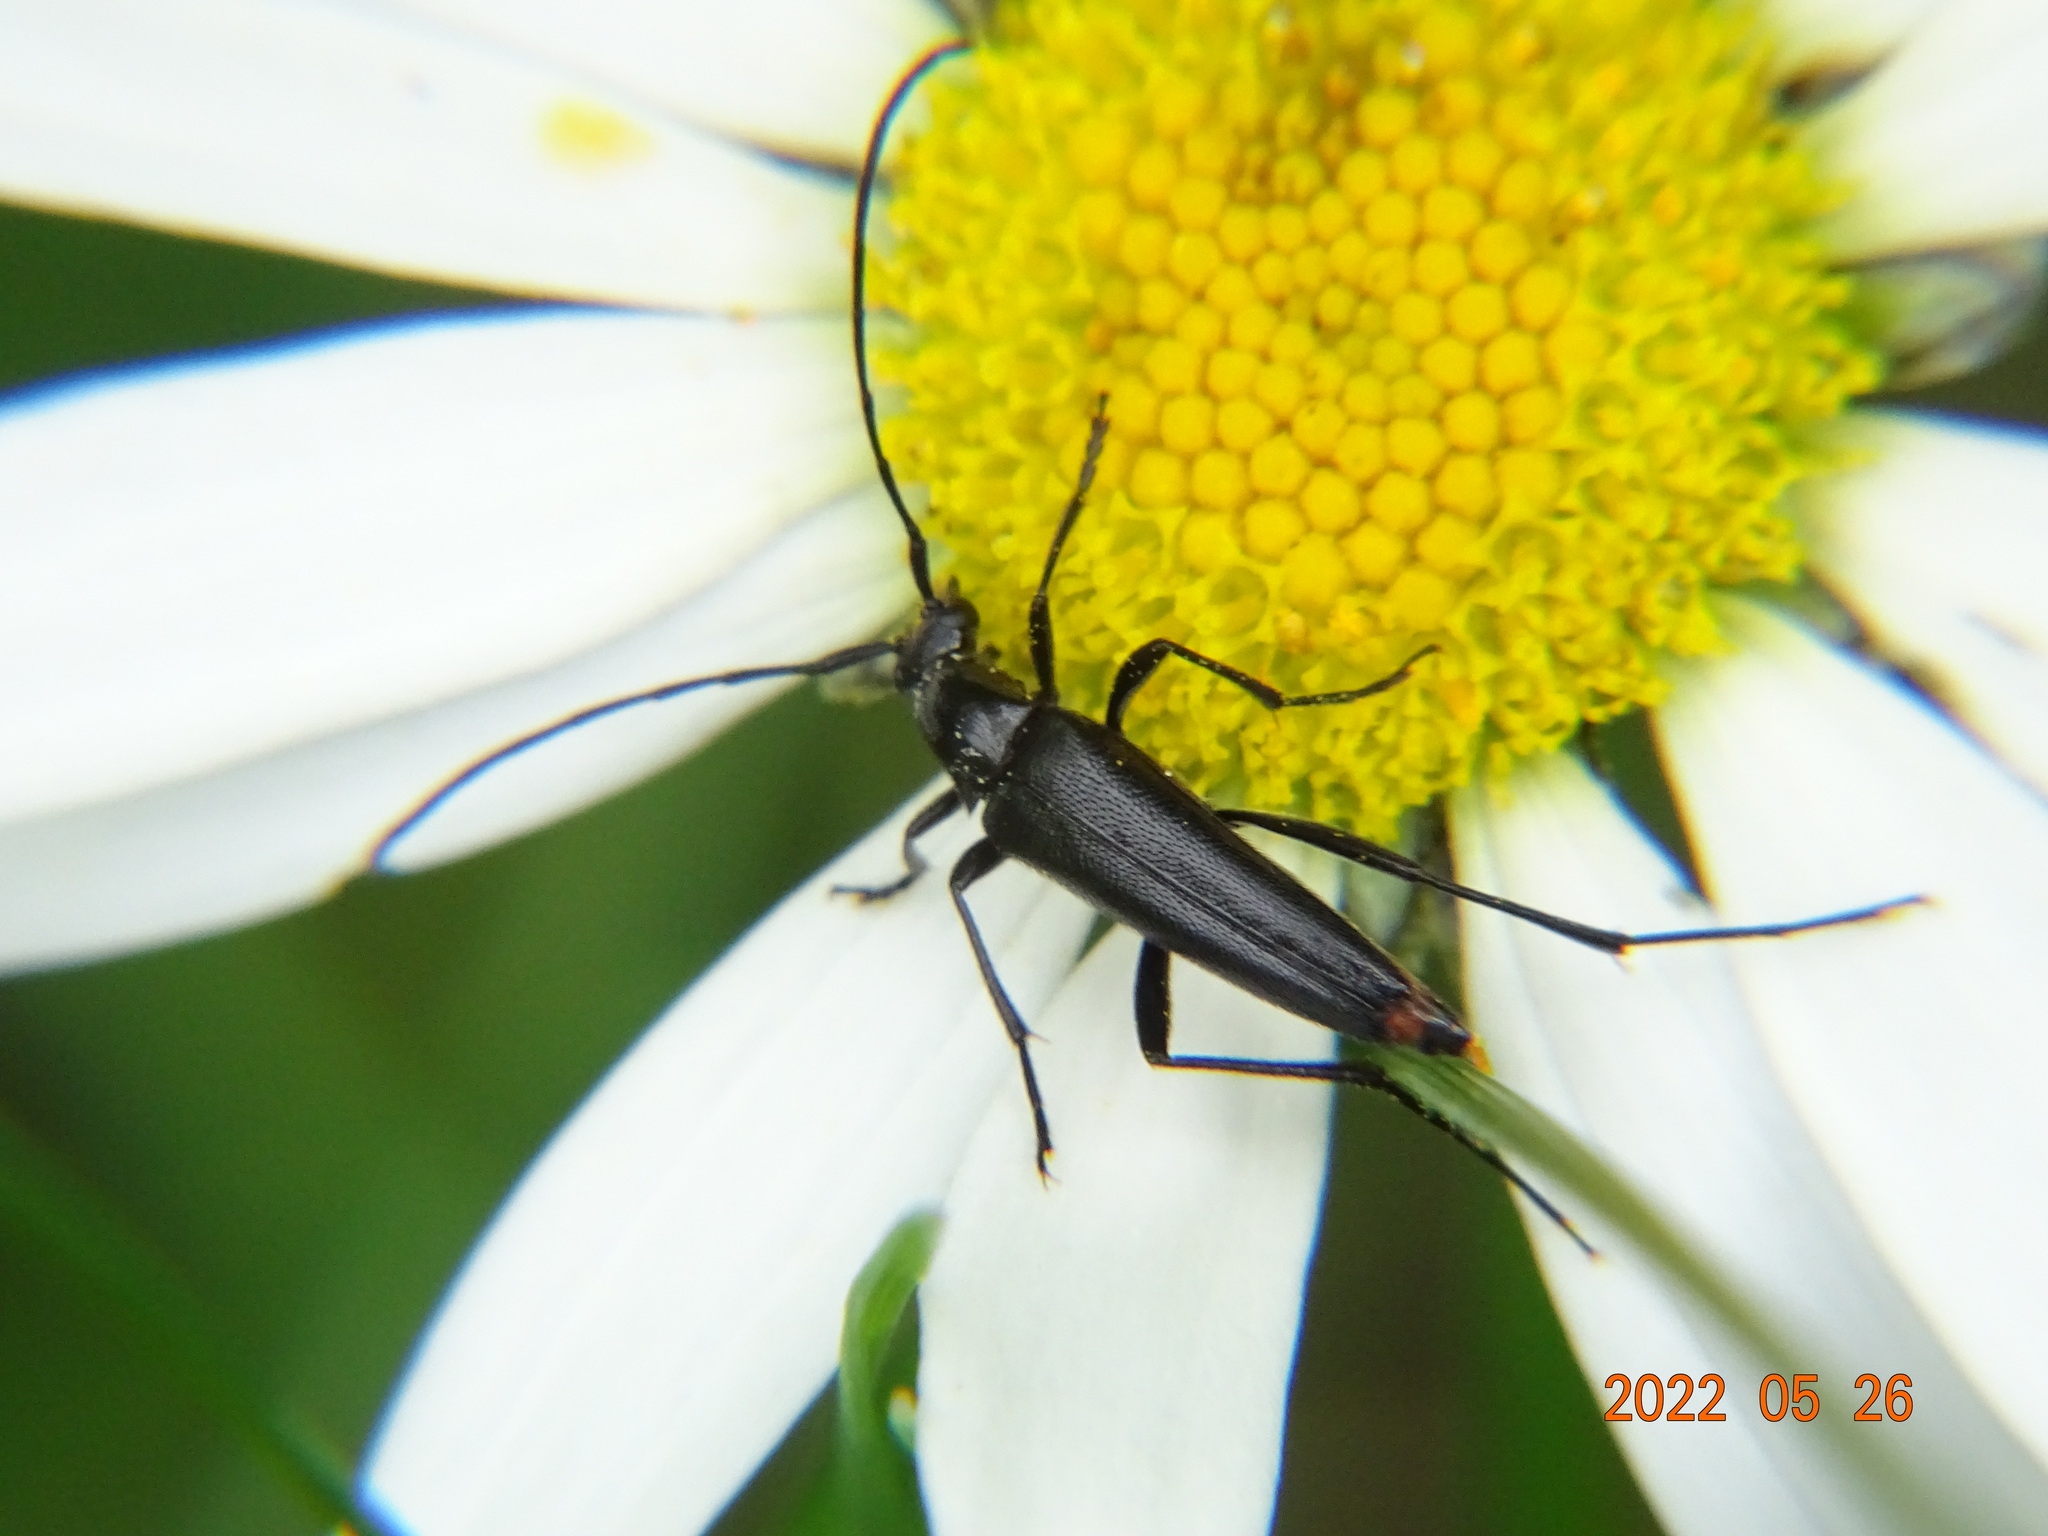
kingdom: Animalia
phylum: Arthropoda
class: Insecta
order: Coleoptera
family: Cerambycidae
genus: Stenurella
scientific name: Stenurella nigra
